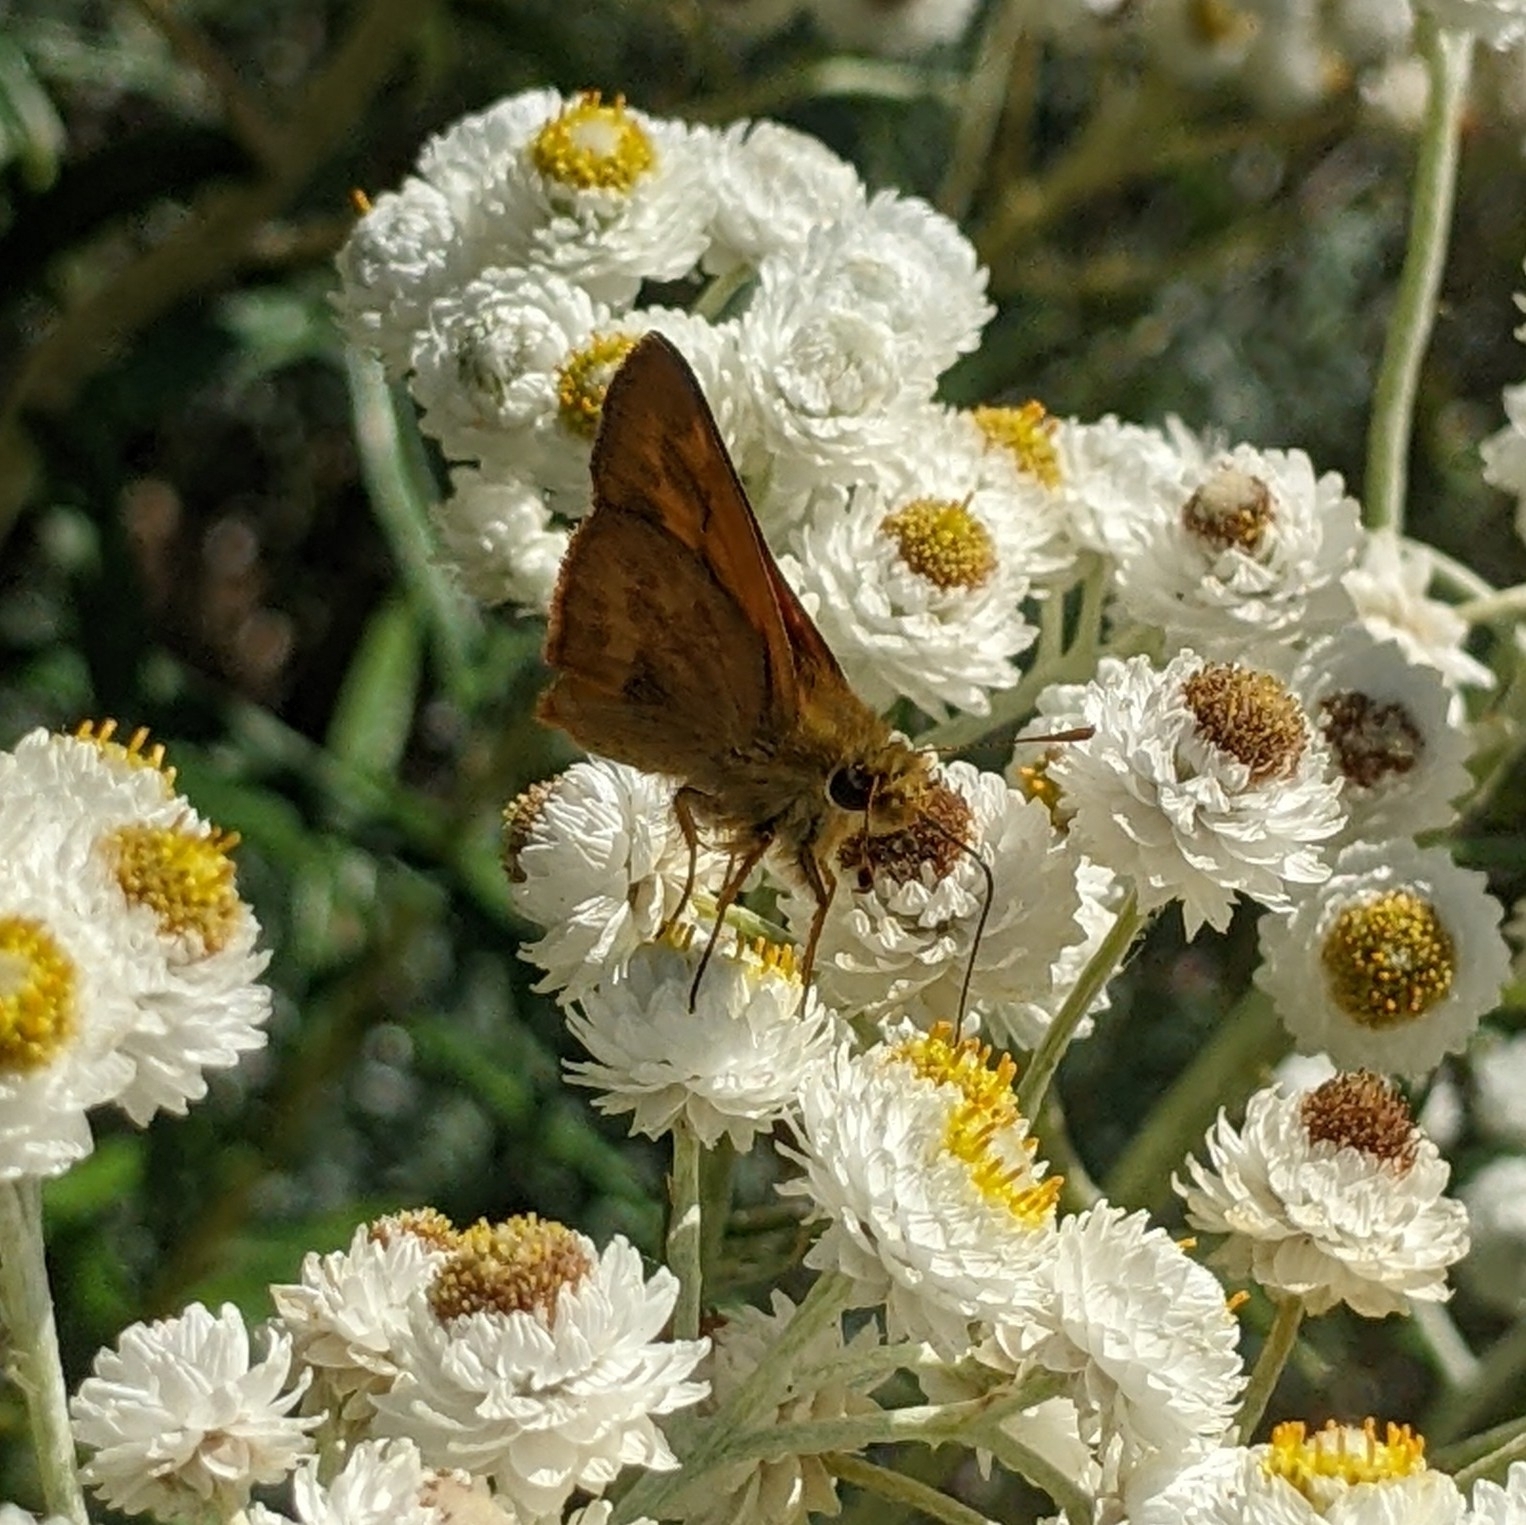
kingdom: Animalia
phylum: Arthropoda
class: Insecta
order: Lepidoptera
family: Hesperiidae
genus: Ochlodes
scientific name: Ochlodes sylvanoides
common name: Woodland skipper
